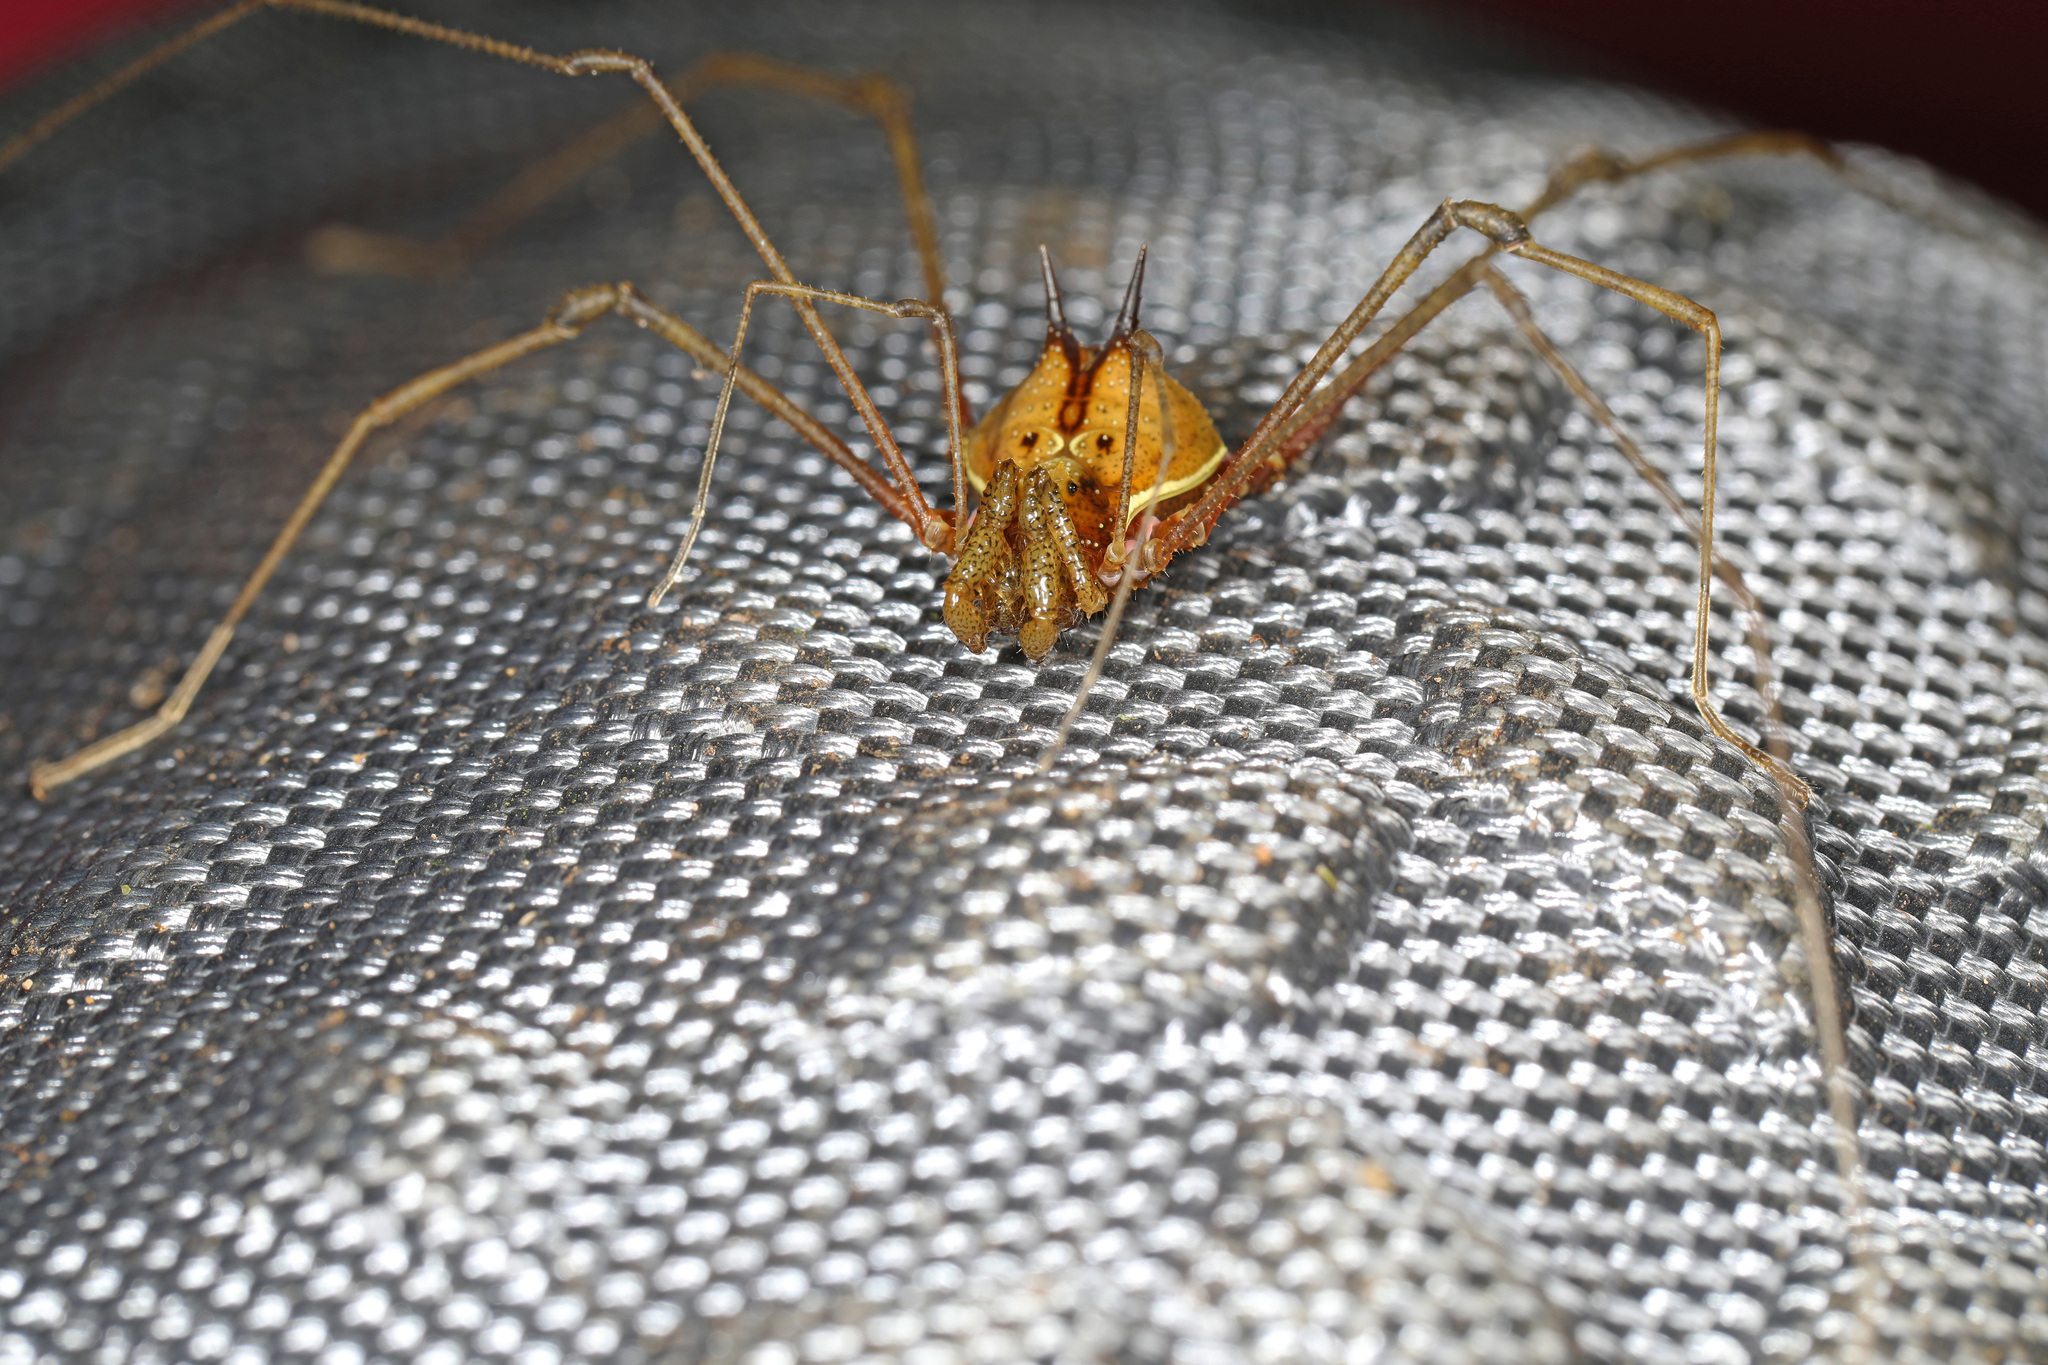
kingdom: Animalia
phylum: Arthropoda
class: Arachnida
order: Opiliones
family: Cranaidae
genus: Ventrivomer
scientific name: Ventrivomer ancyrophorus
